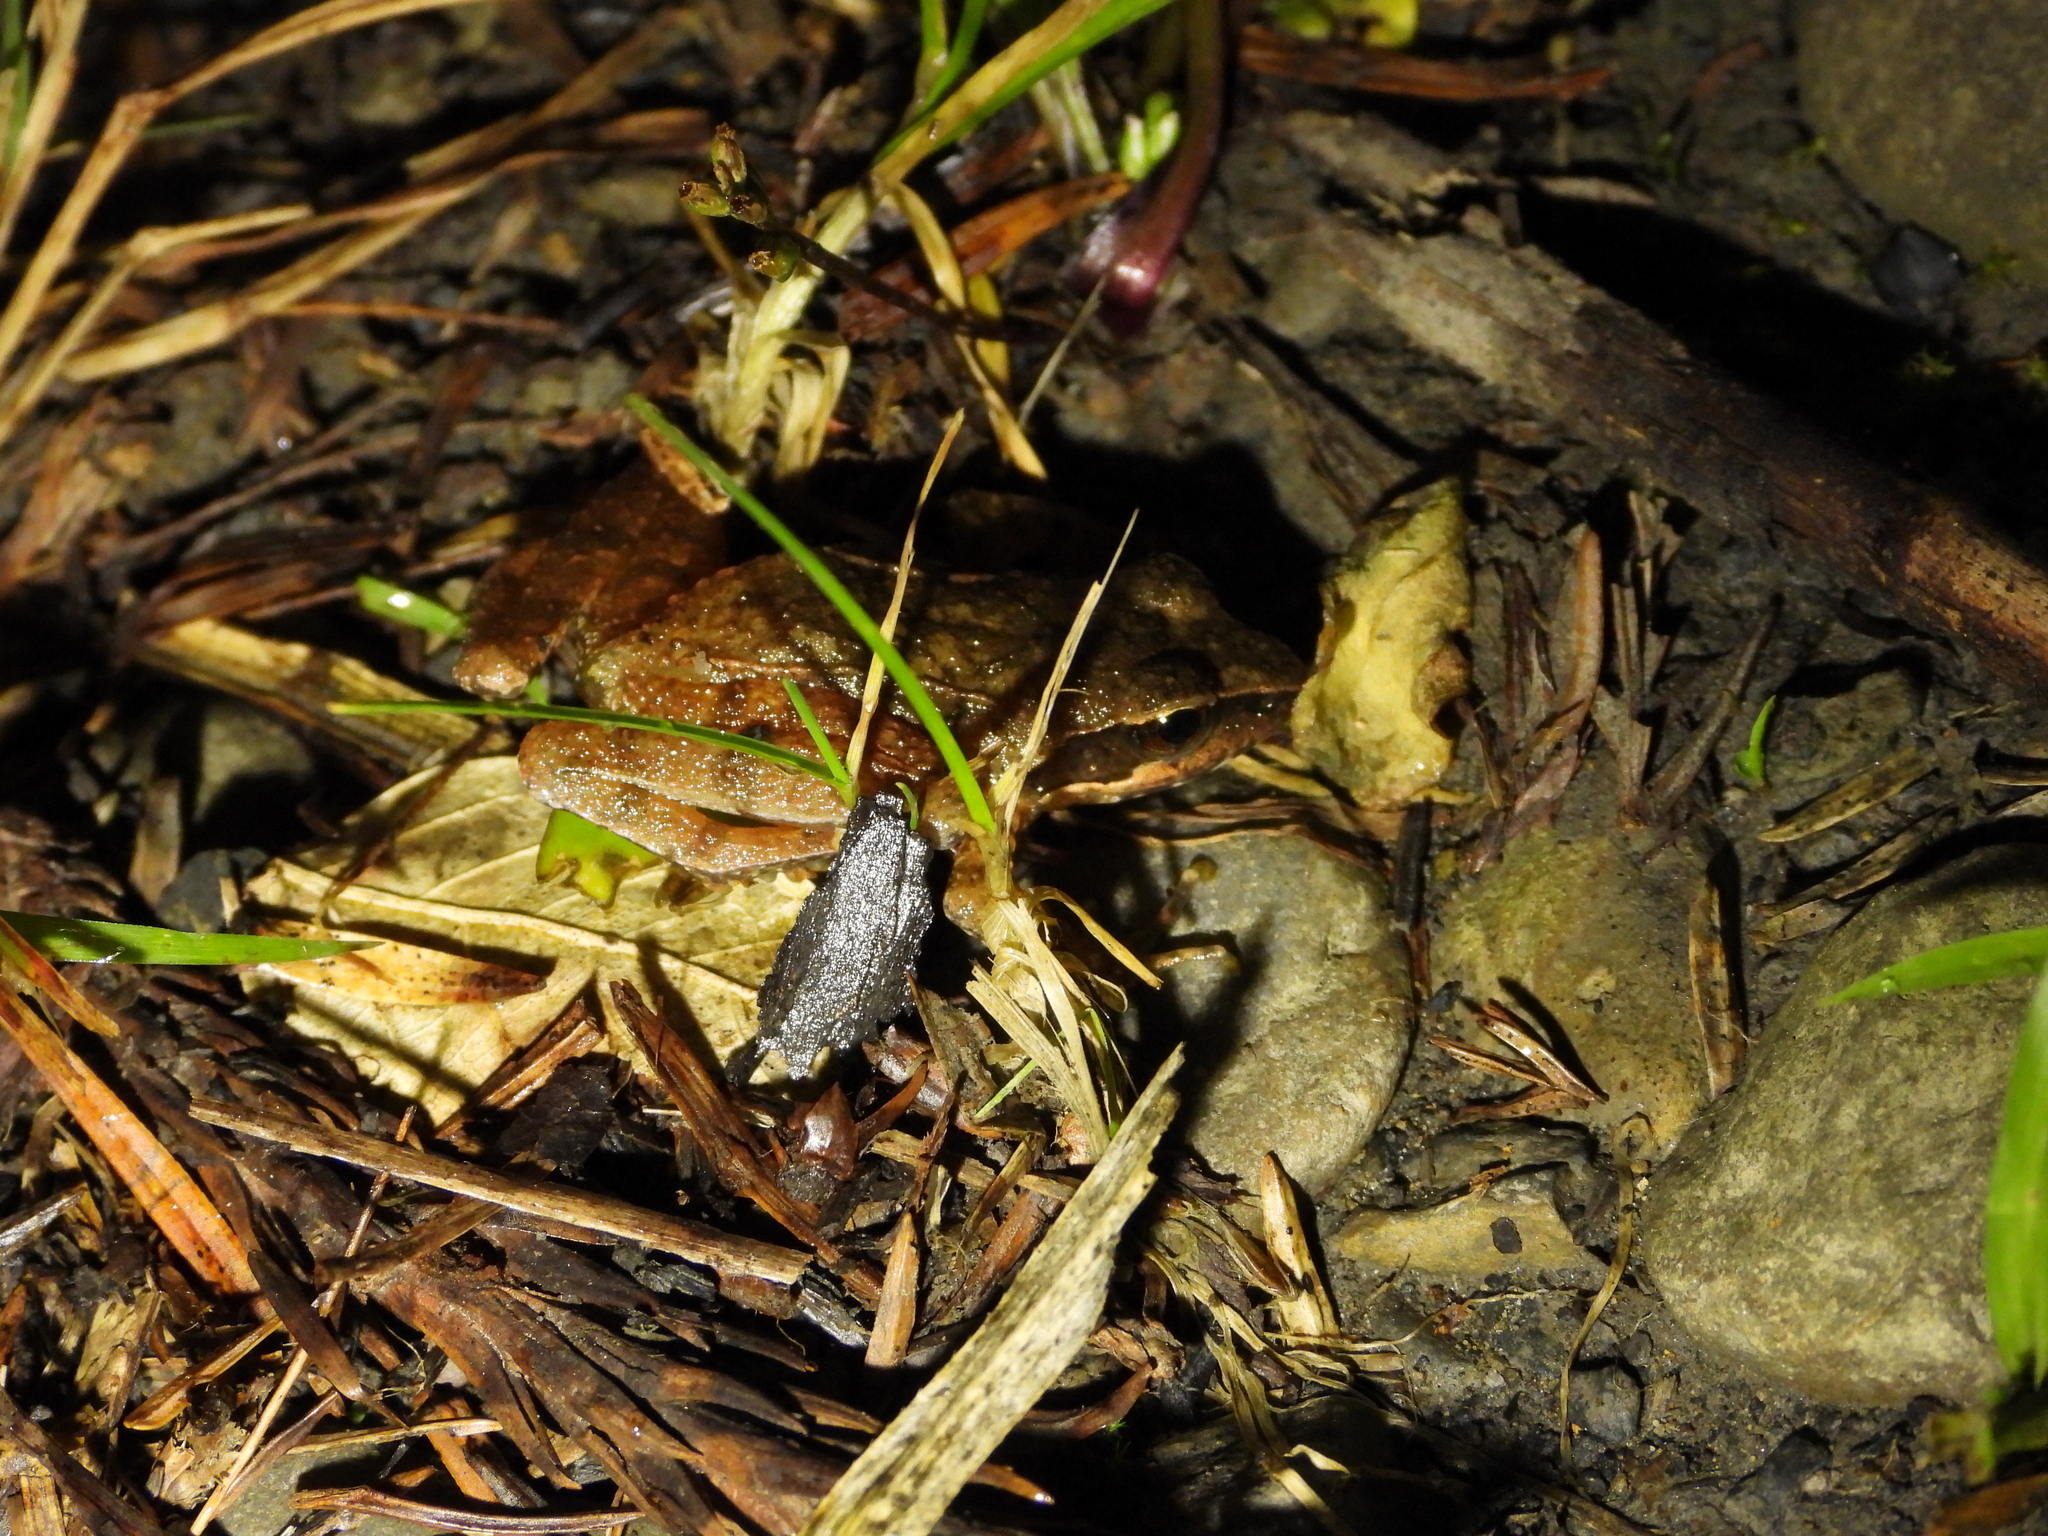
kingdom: Animalia
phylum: Chordata
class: Amphibia
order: Anura
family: Ranidae
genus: Rana
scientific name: Rana sauteri
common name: Kanshirei village frog
